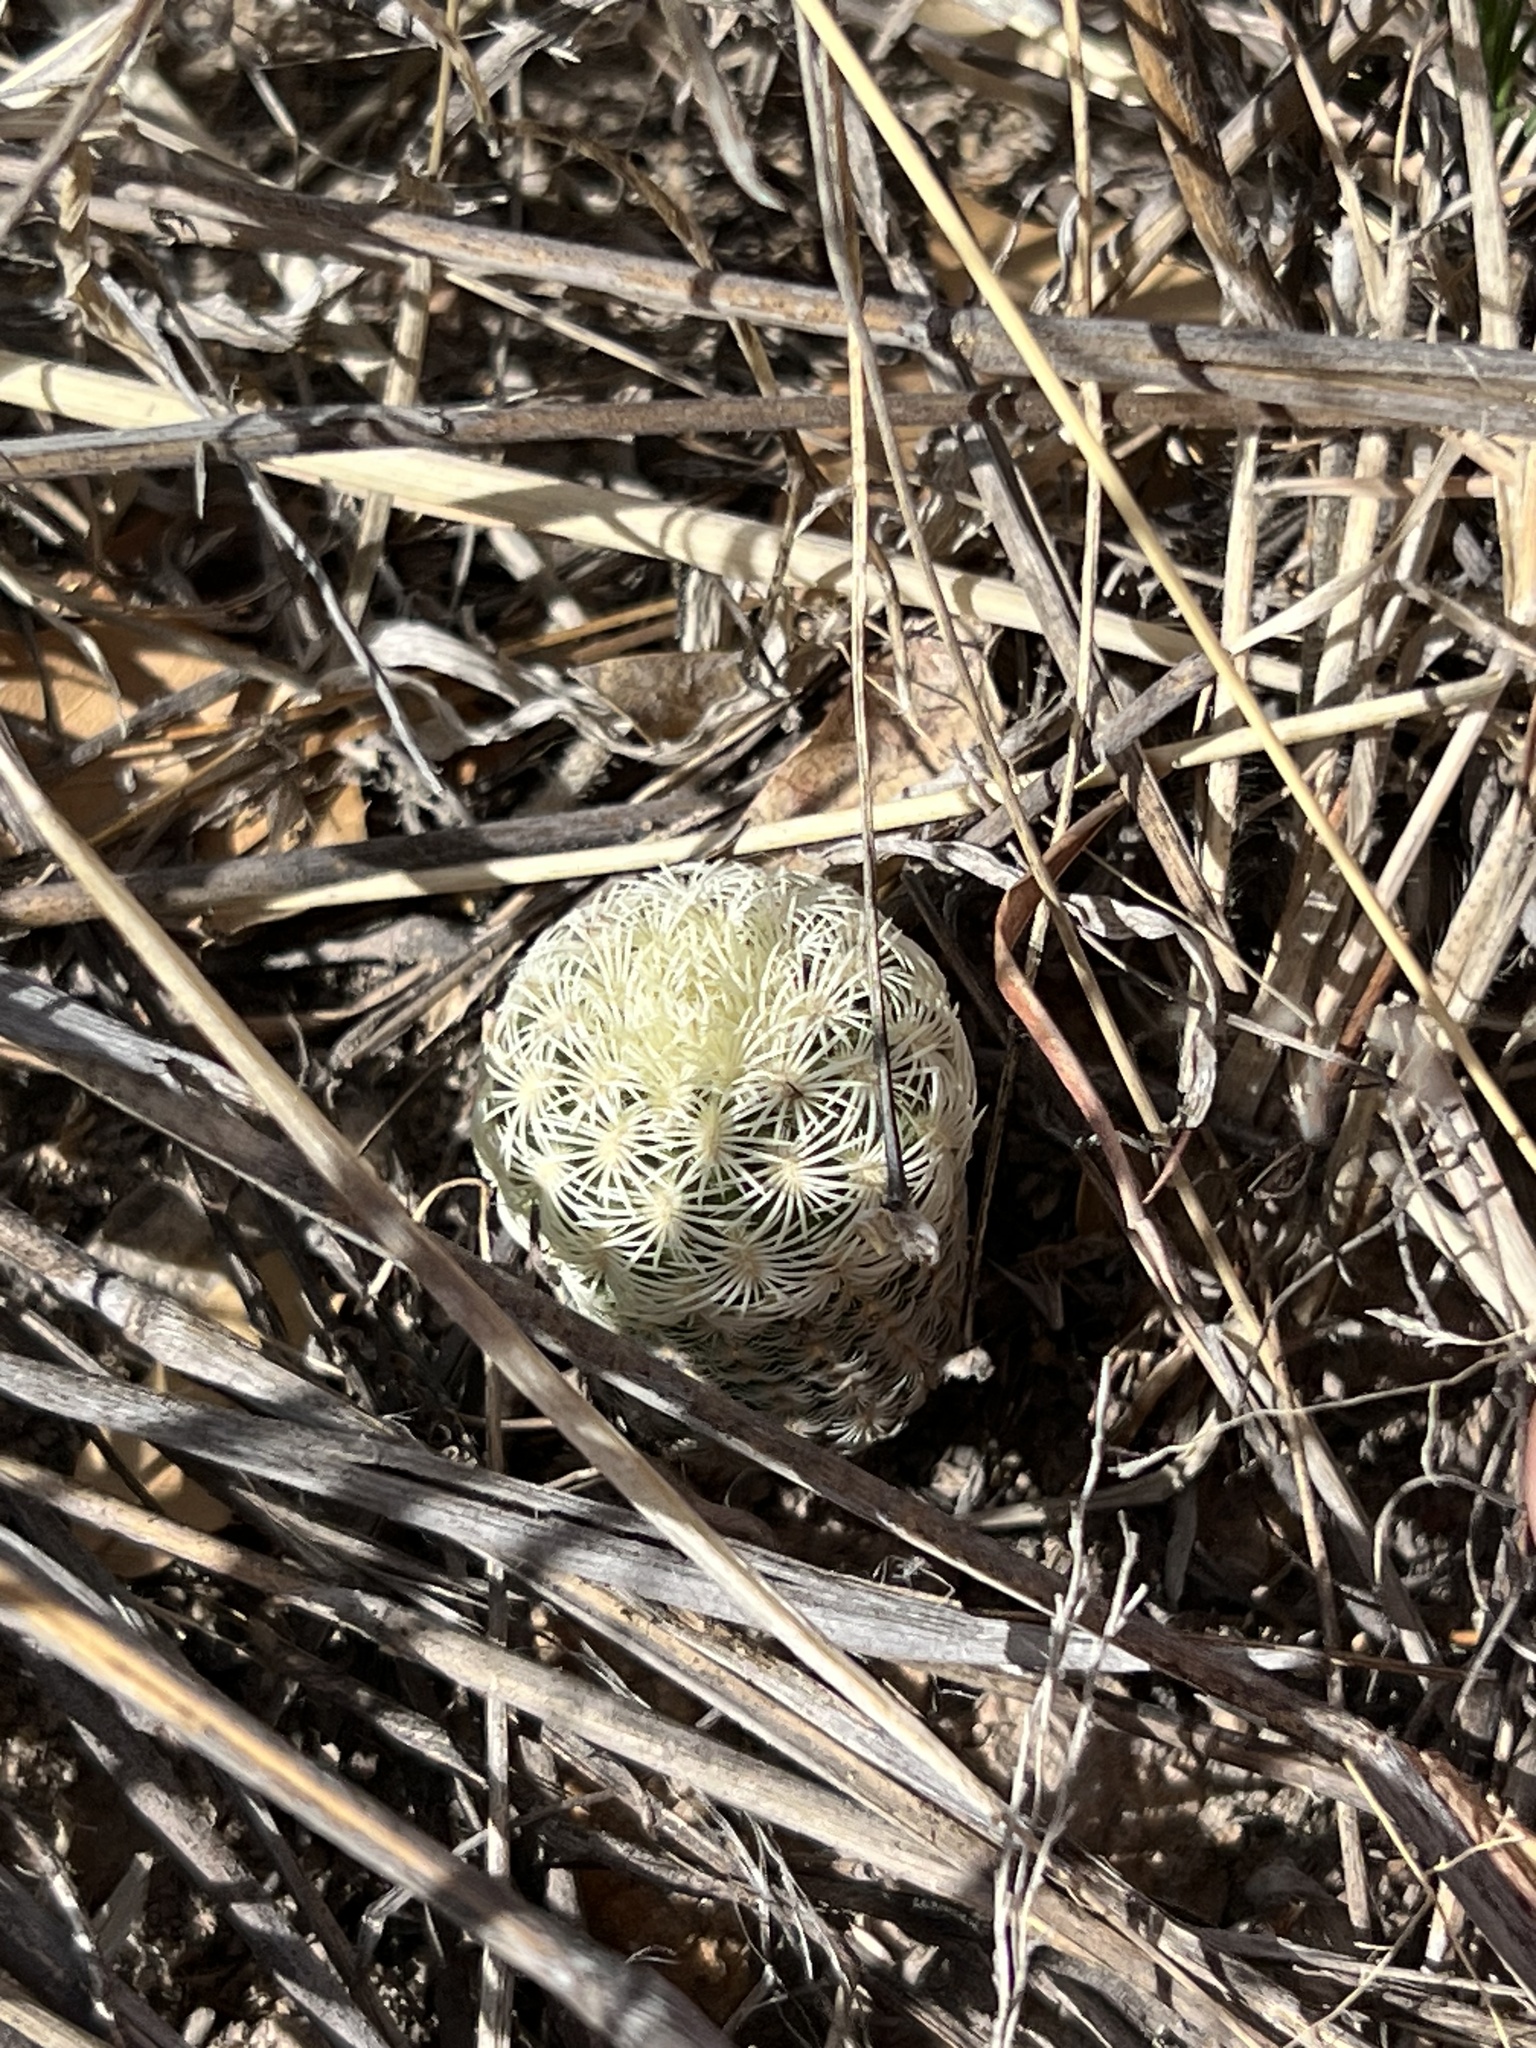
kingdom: Plantae
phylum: Tracheophyta
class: Magnoliopsida
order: Caryophyllales
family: Cactaceae
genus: Echinocereus
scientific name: Echinocereus rigidissimus
